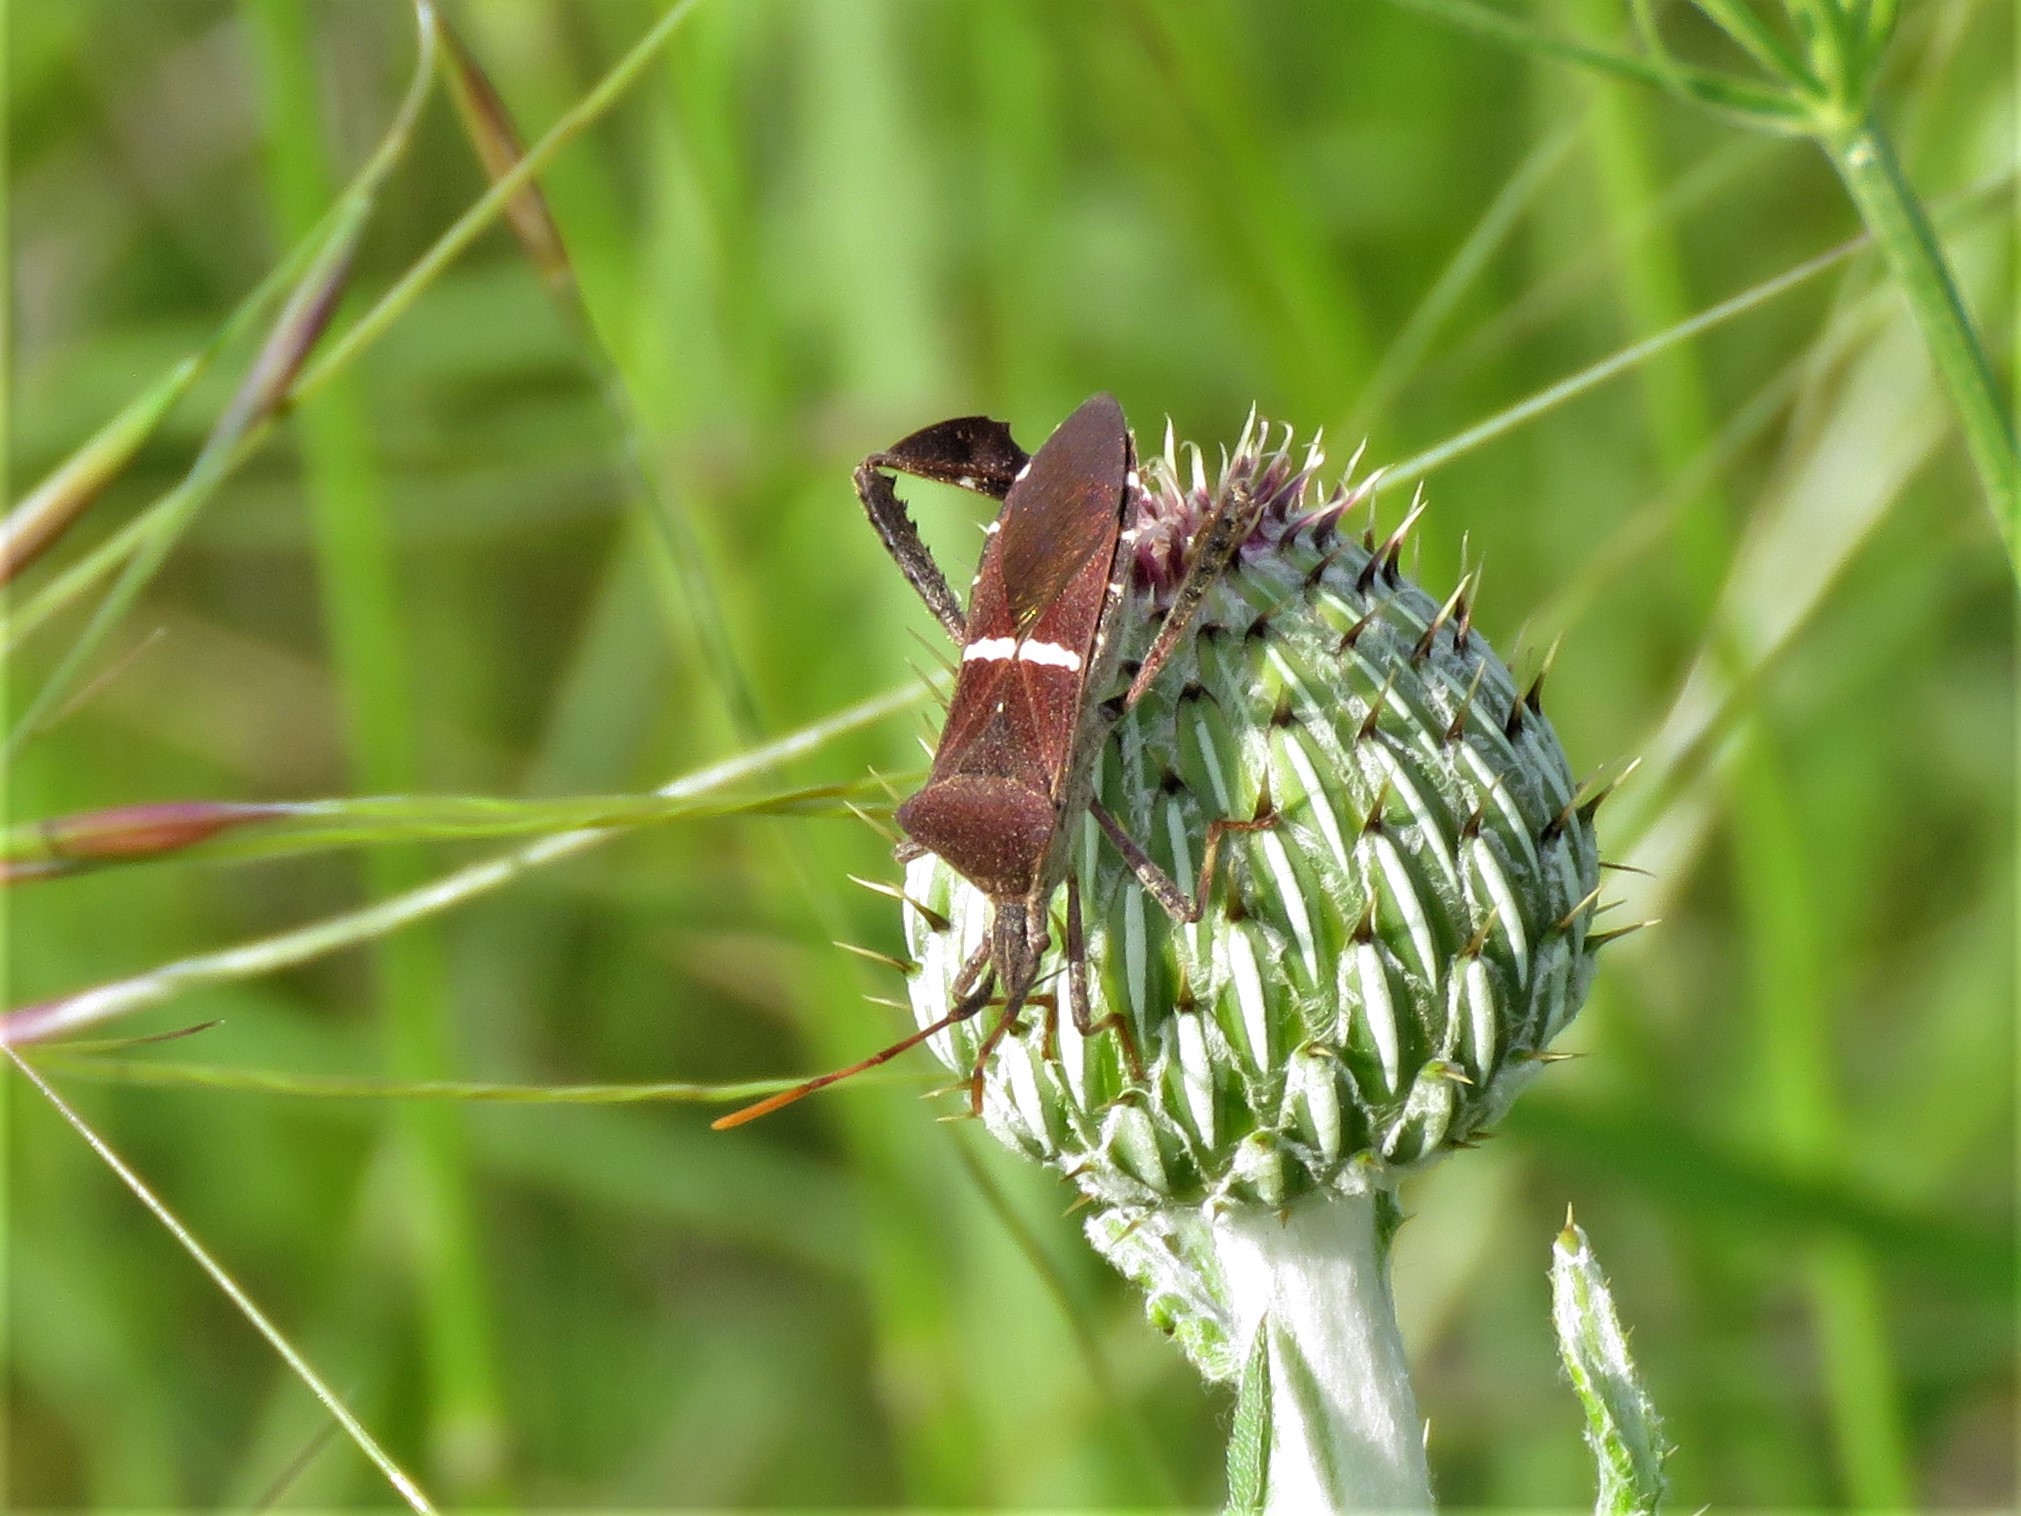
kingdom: Animalia
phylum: Arthropoda
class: Insecta
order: Hemiptera
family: Coreidae
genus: Leptoglossus
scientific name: Leptoglossus phyllopus
